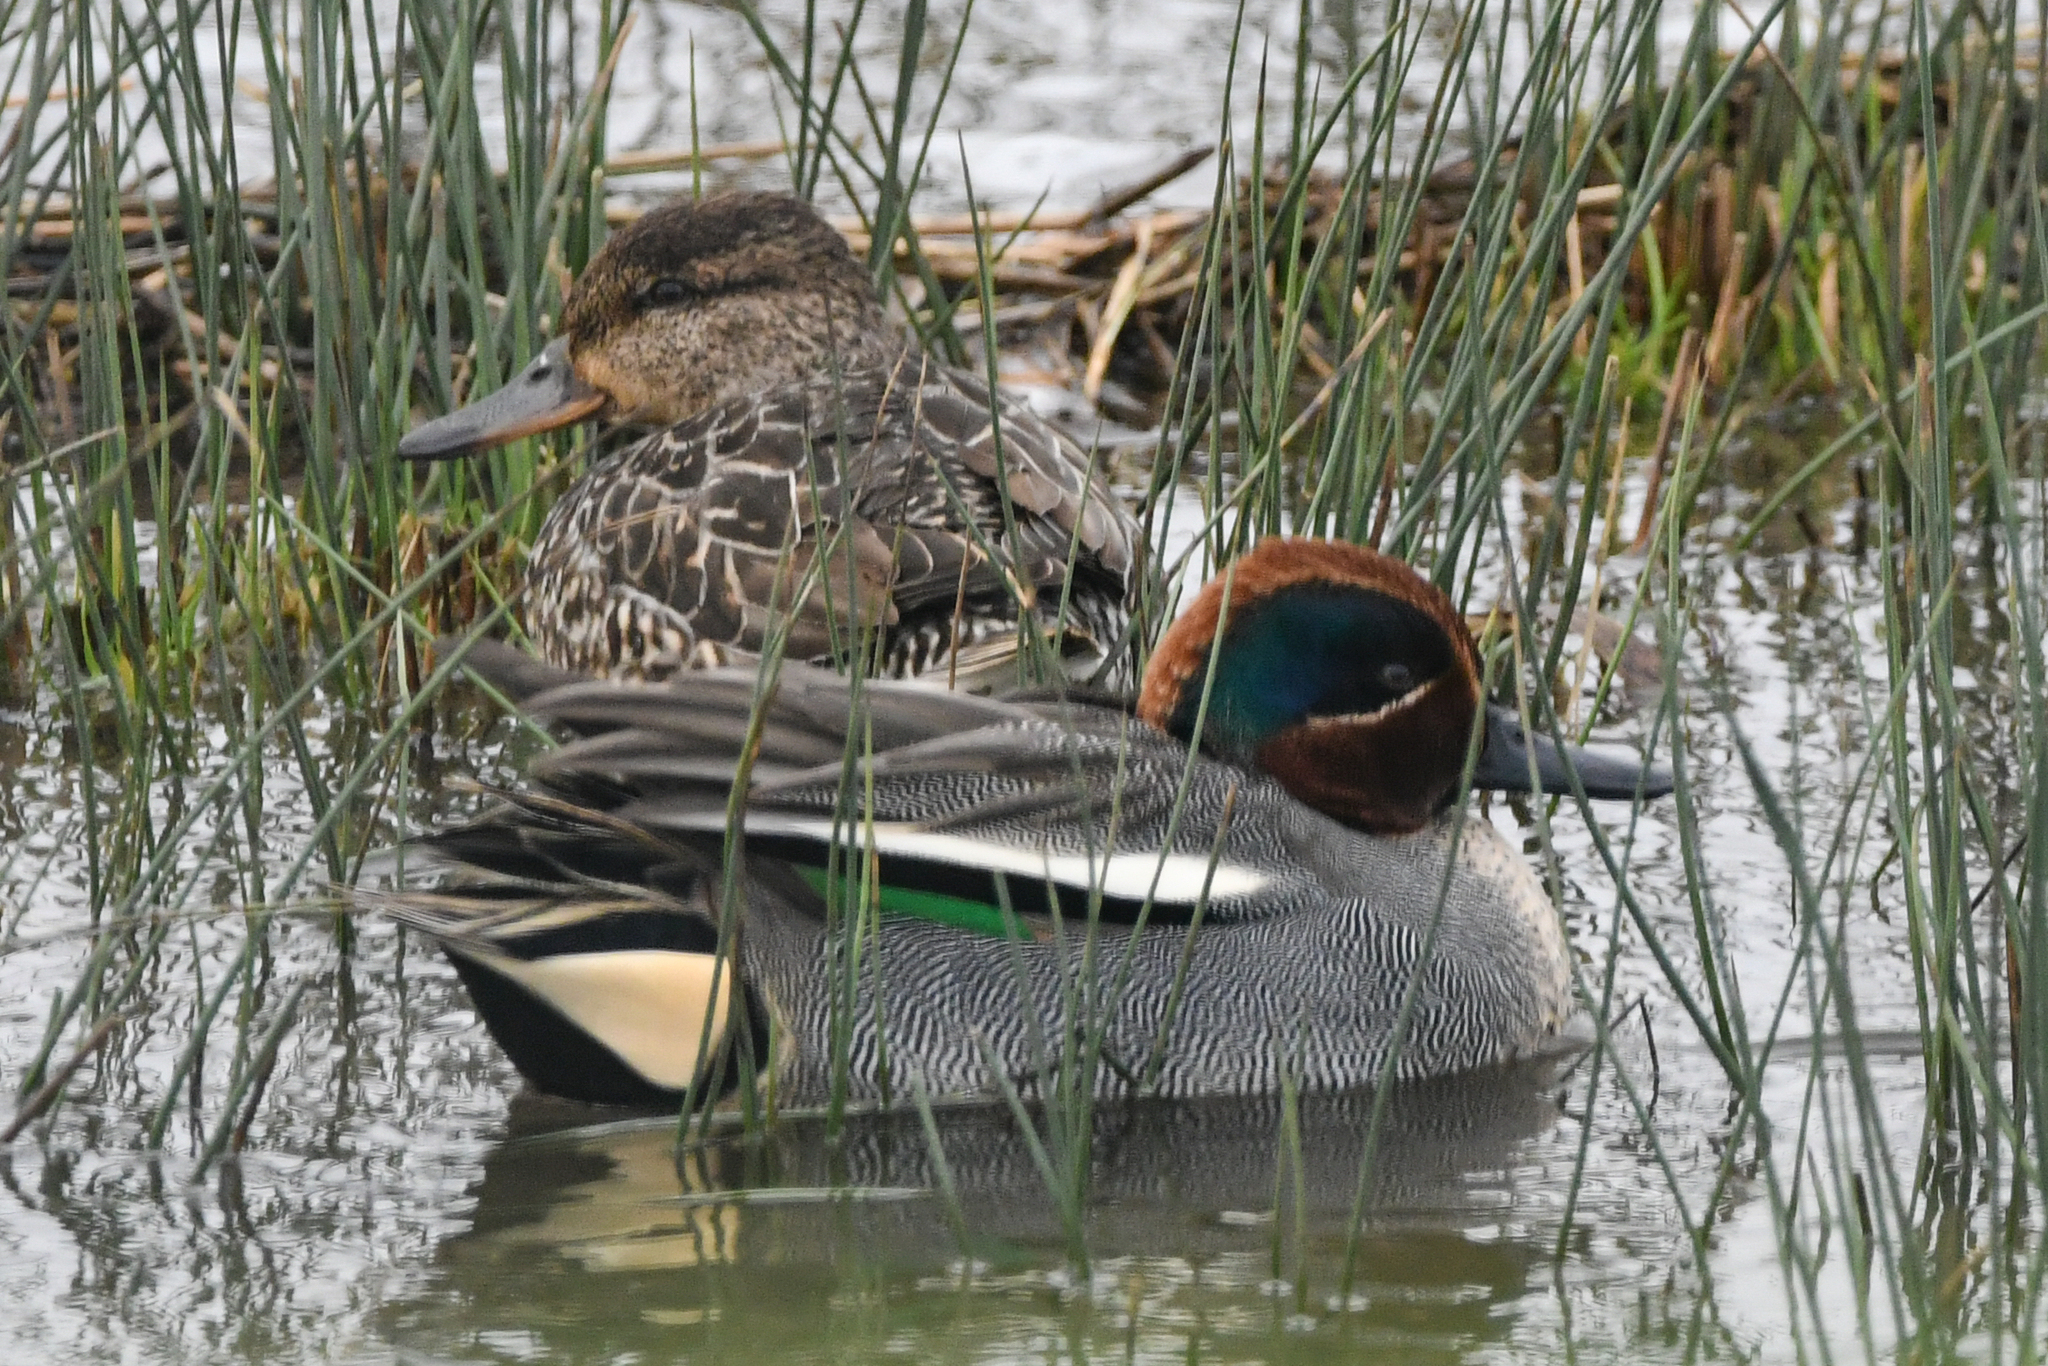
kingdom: Animalia
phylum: Chordata
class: Aves
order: Anseriformes
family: Anatidae
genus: Anas
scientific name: Anas crecca
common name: Eurasian teal
